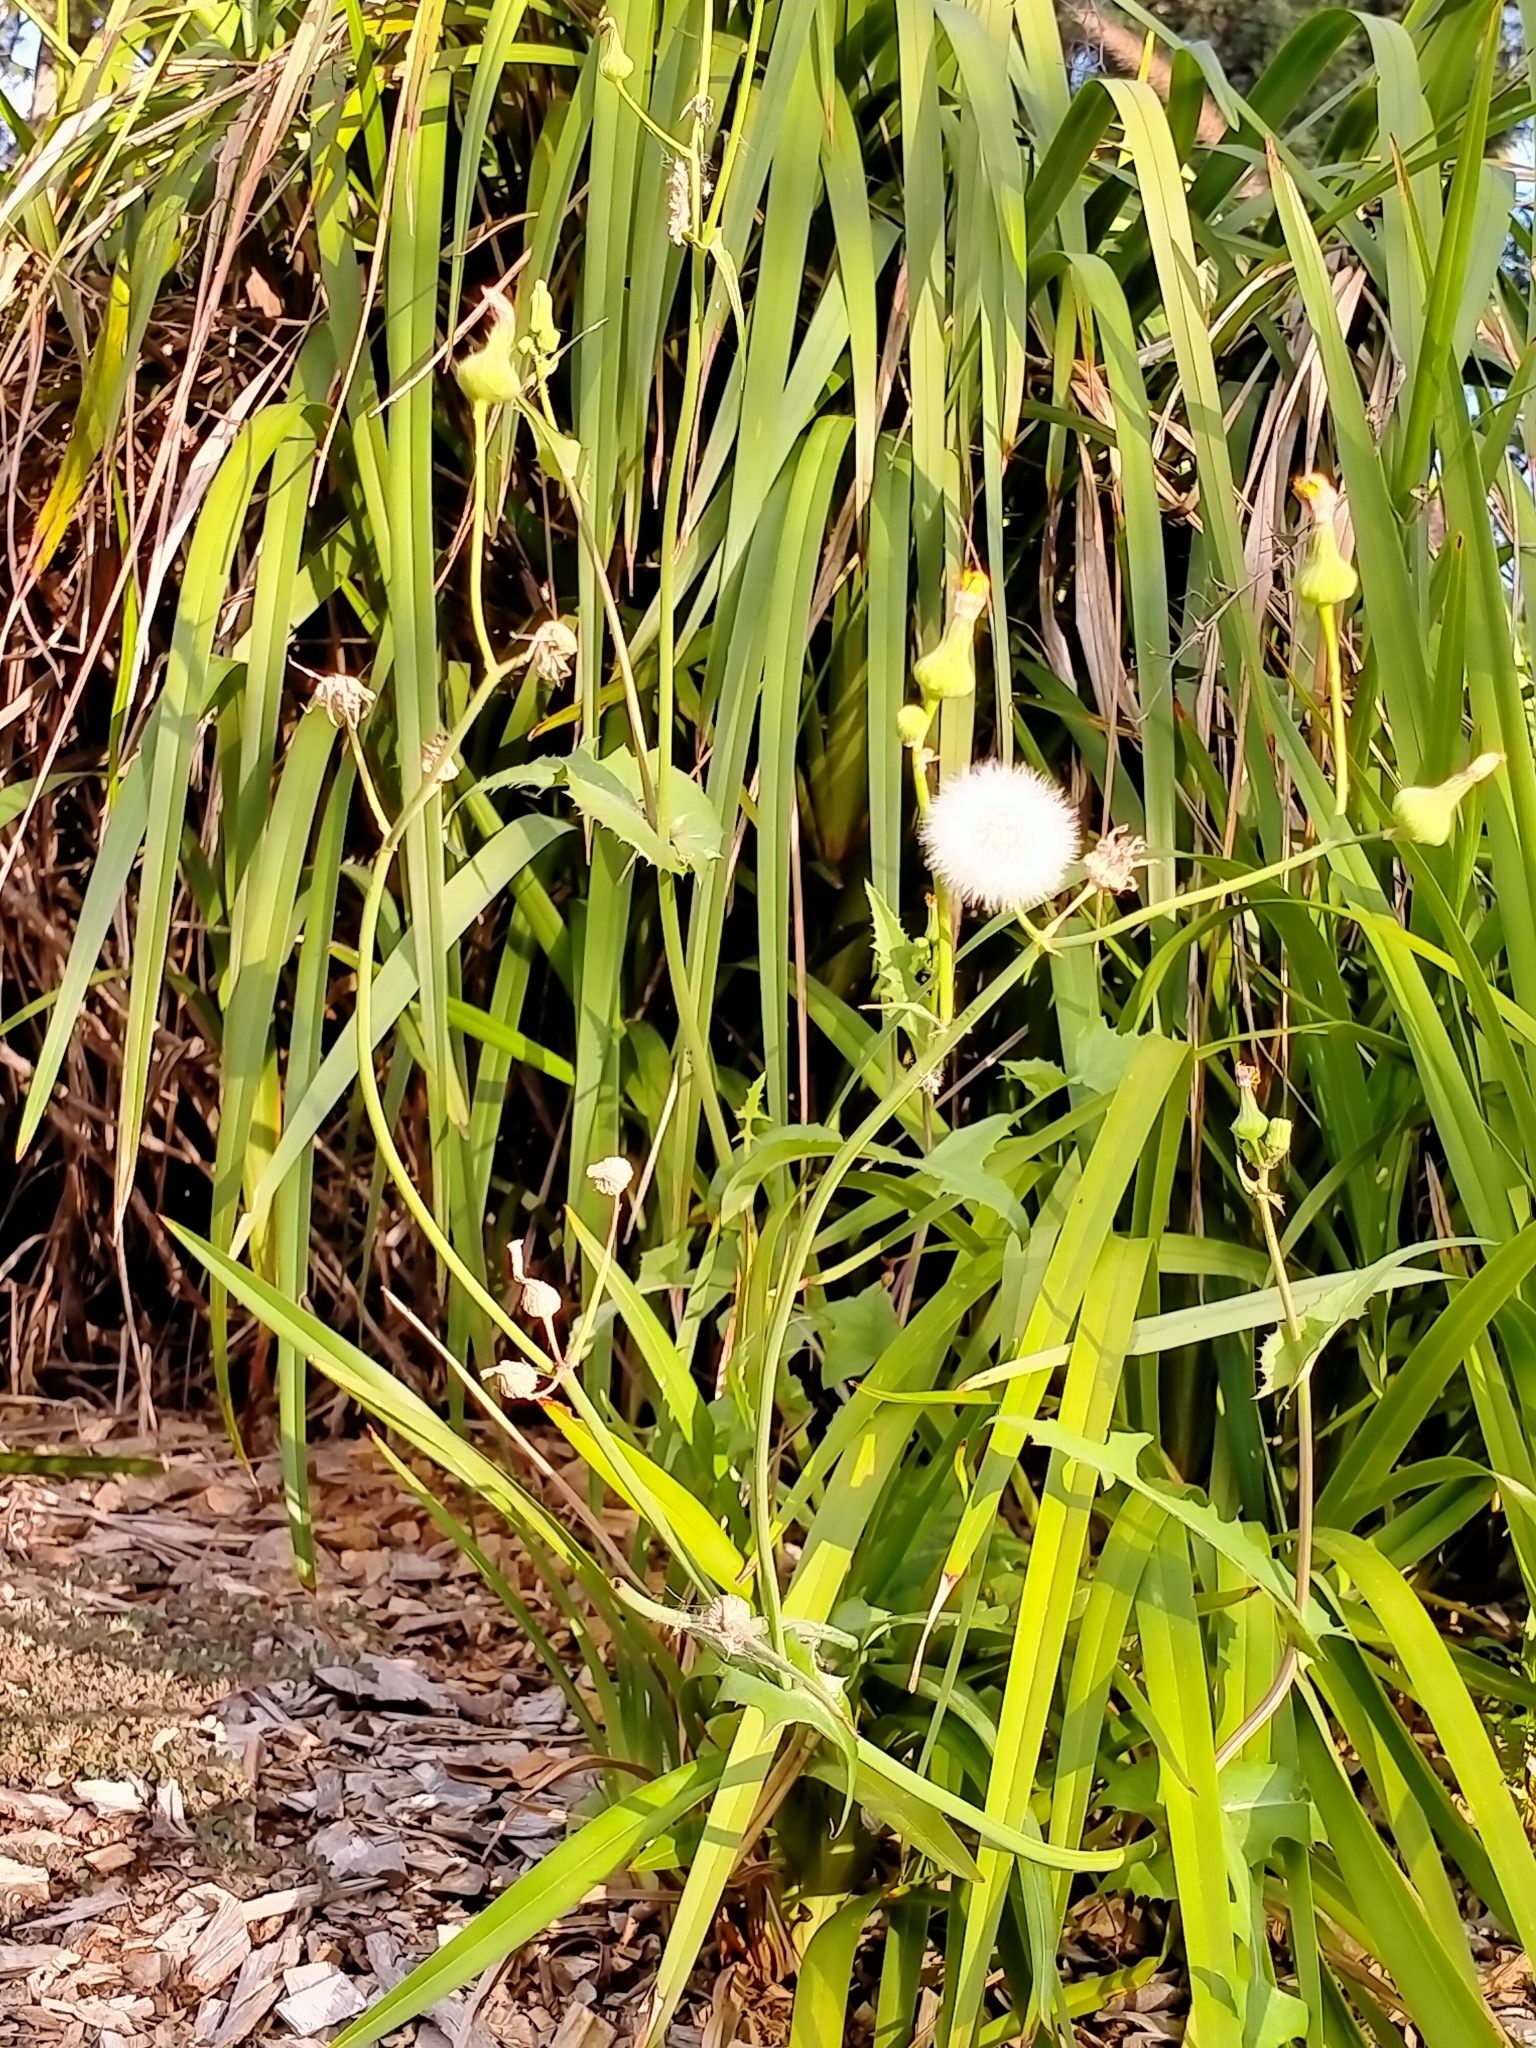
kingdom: Plantae
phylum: Tracheophyta
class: Magnoliopsida
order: Asterales
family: Asteraceae
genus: Sonchus
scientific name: Sonchus oleraceus
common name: Common sowthistle
